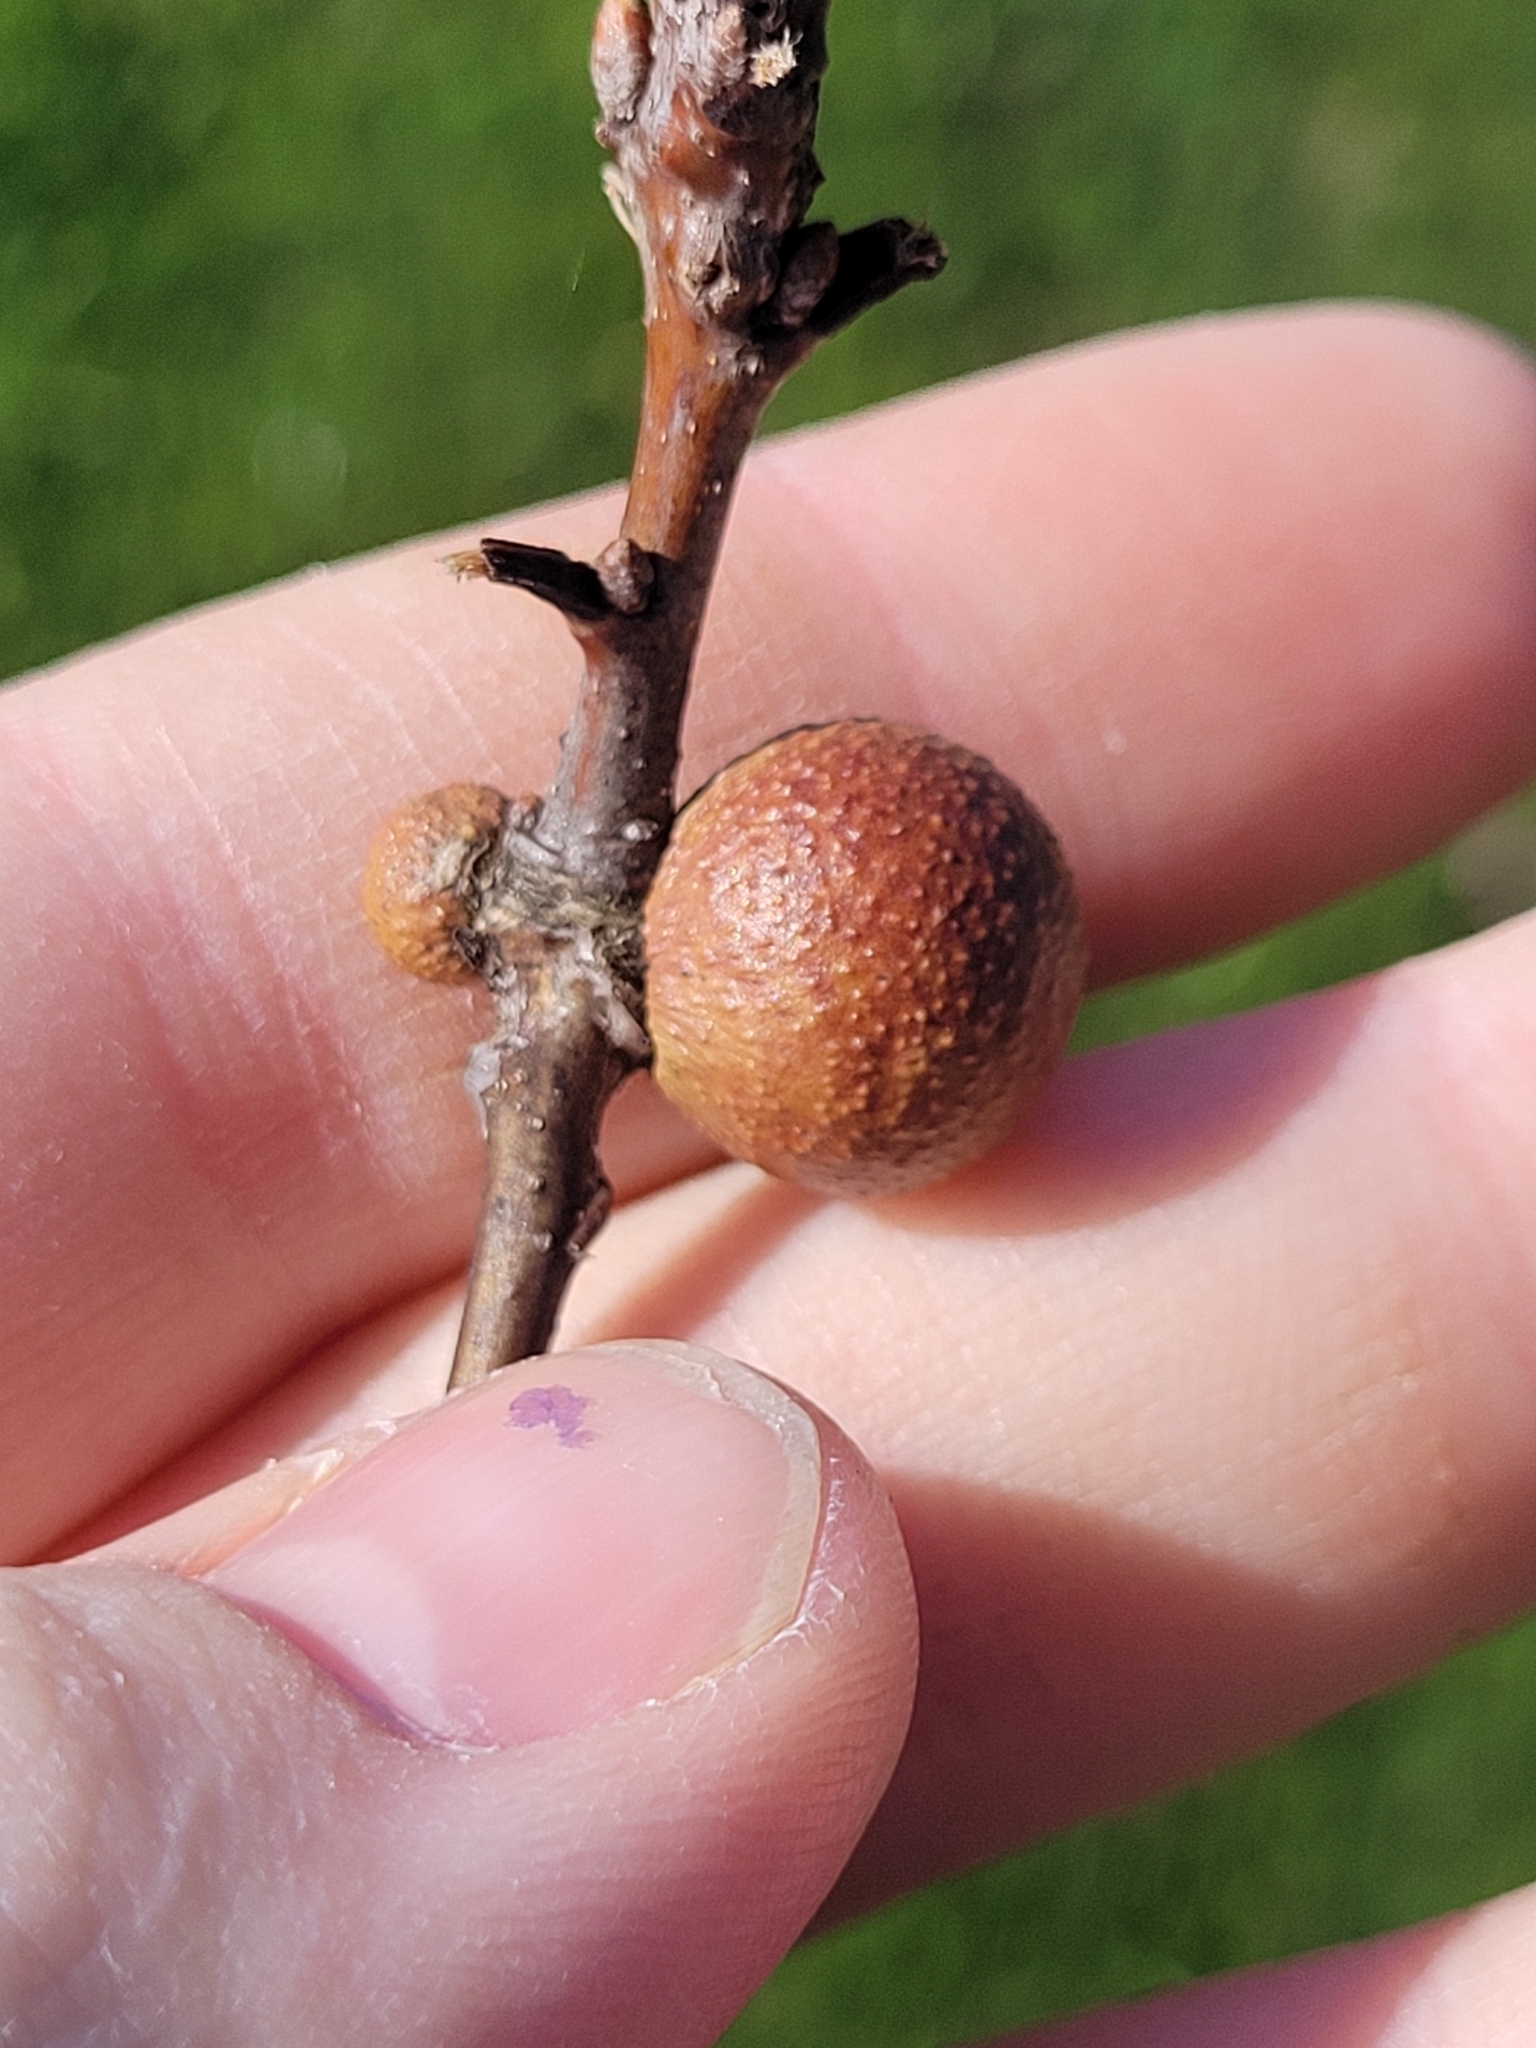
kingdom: Animalia
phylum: Arthropoda
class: Insecta
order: Hymenoptera
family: Cynipidae
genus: Disholcaspis
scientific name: Disholcaspis quercusglobulus
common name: Round bullet gall wasp
